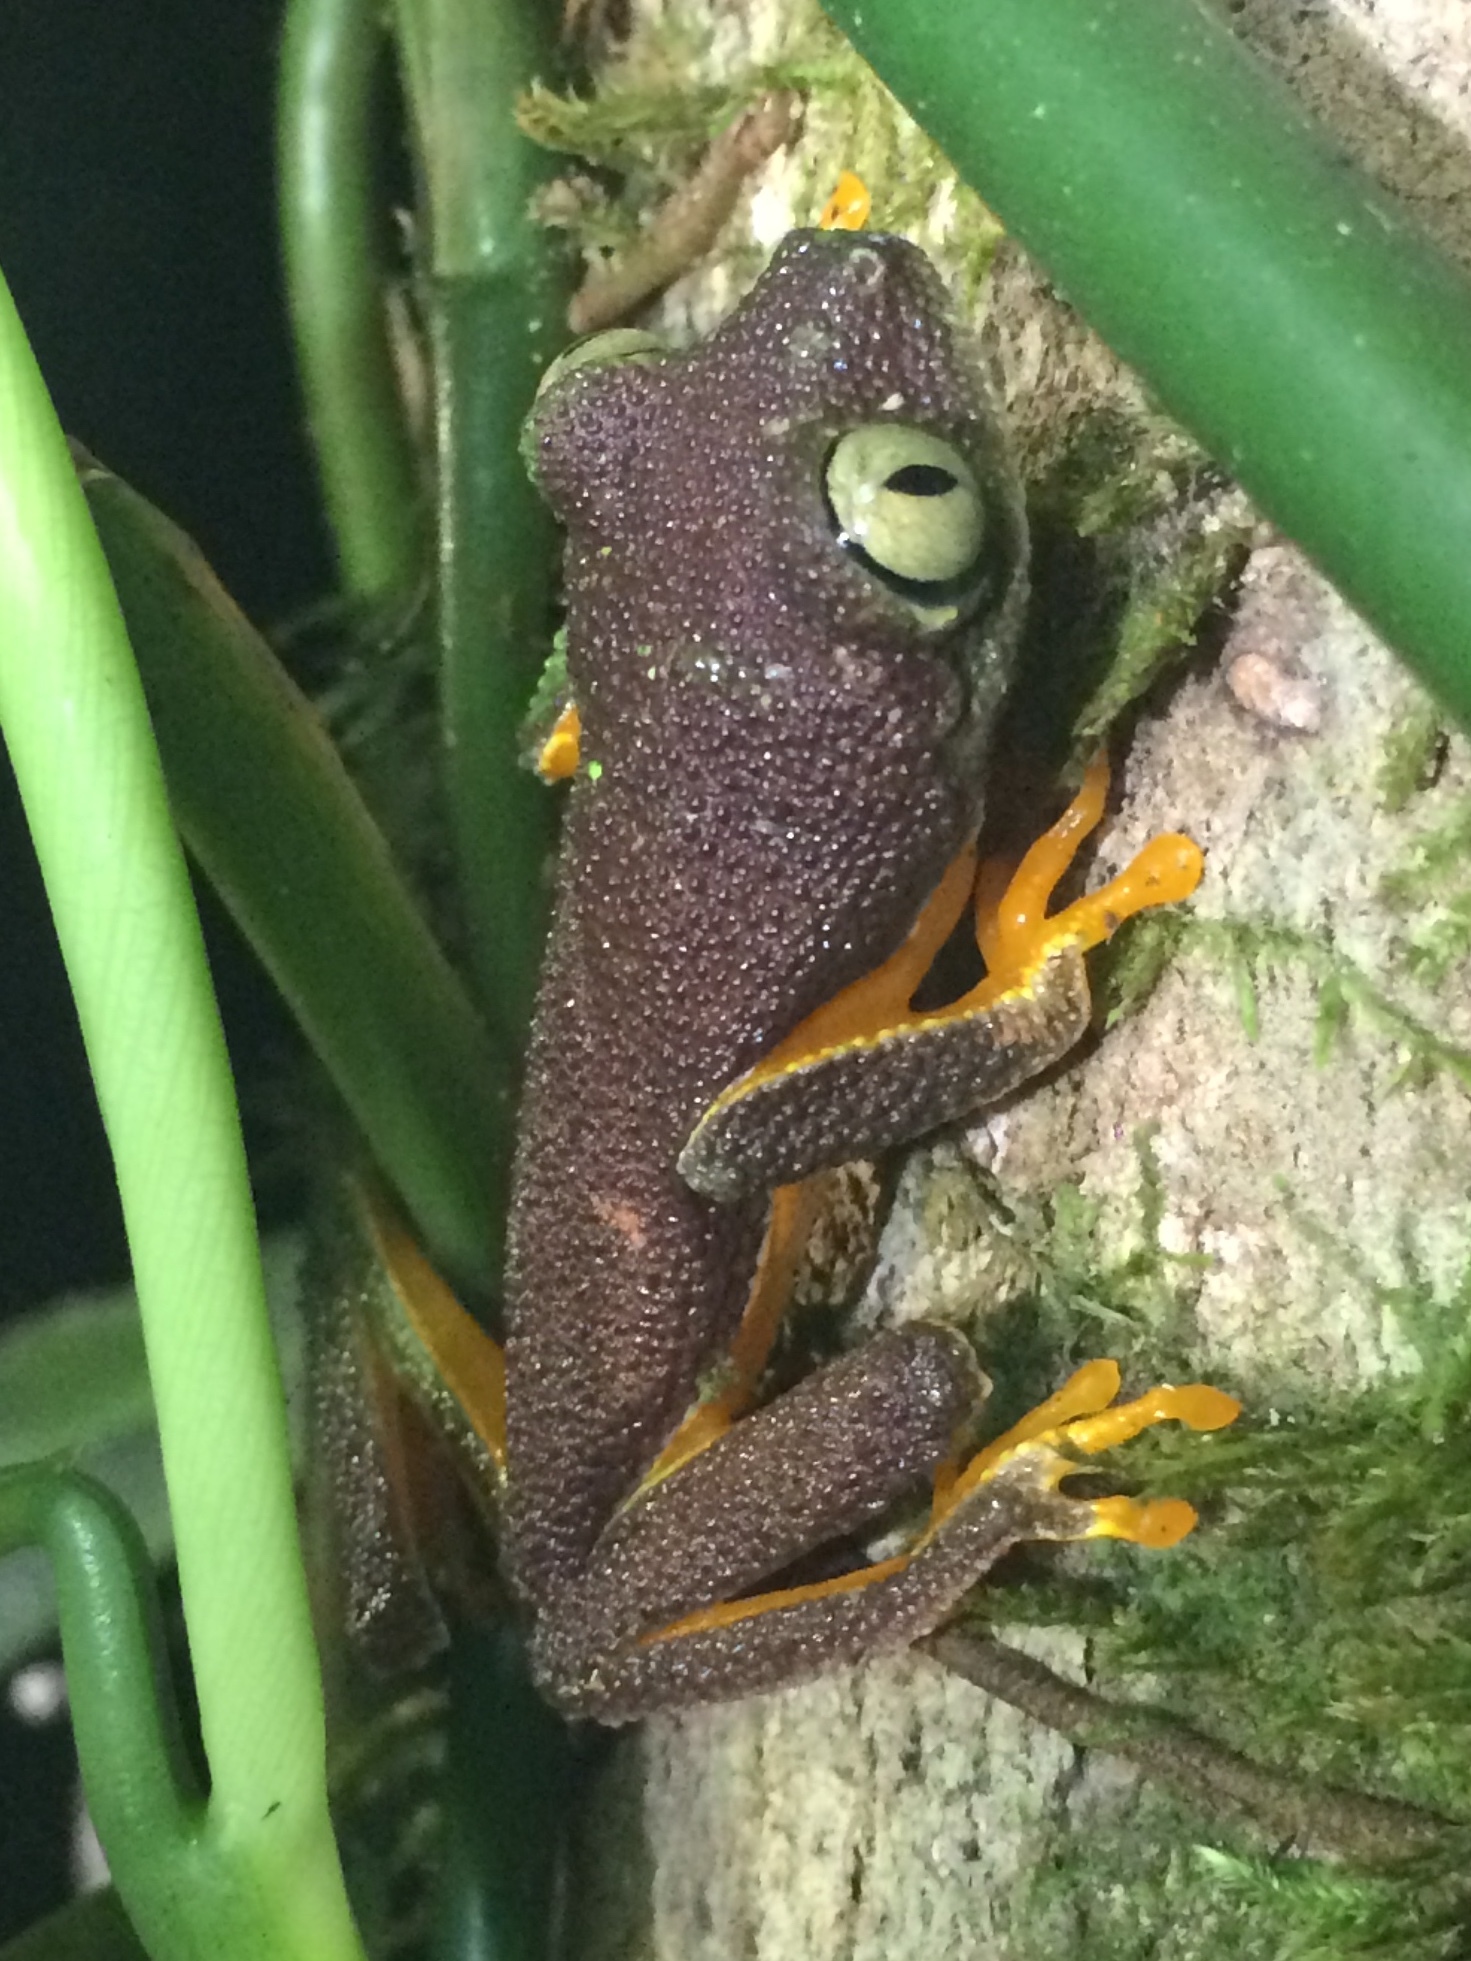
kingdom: Animalia
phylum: Chordata
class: Amphibia
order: Anura
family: Phyllomedusidae
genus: Hylomantis
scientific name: Hylomantis granulosa
